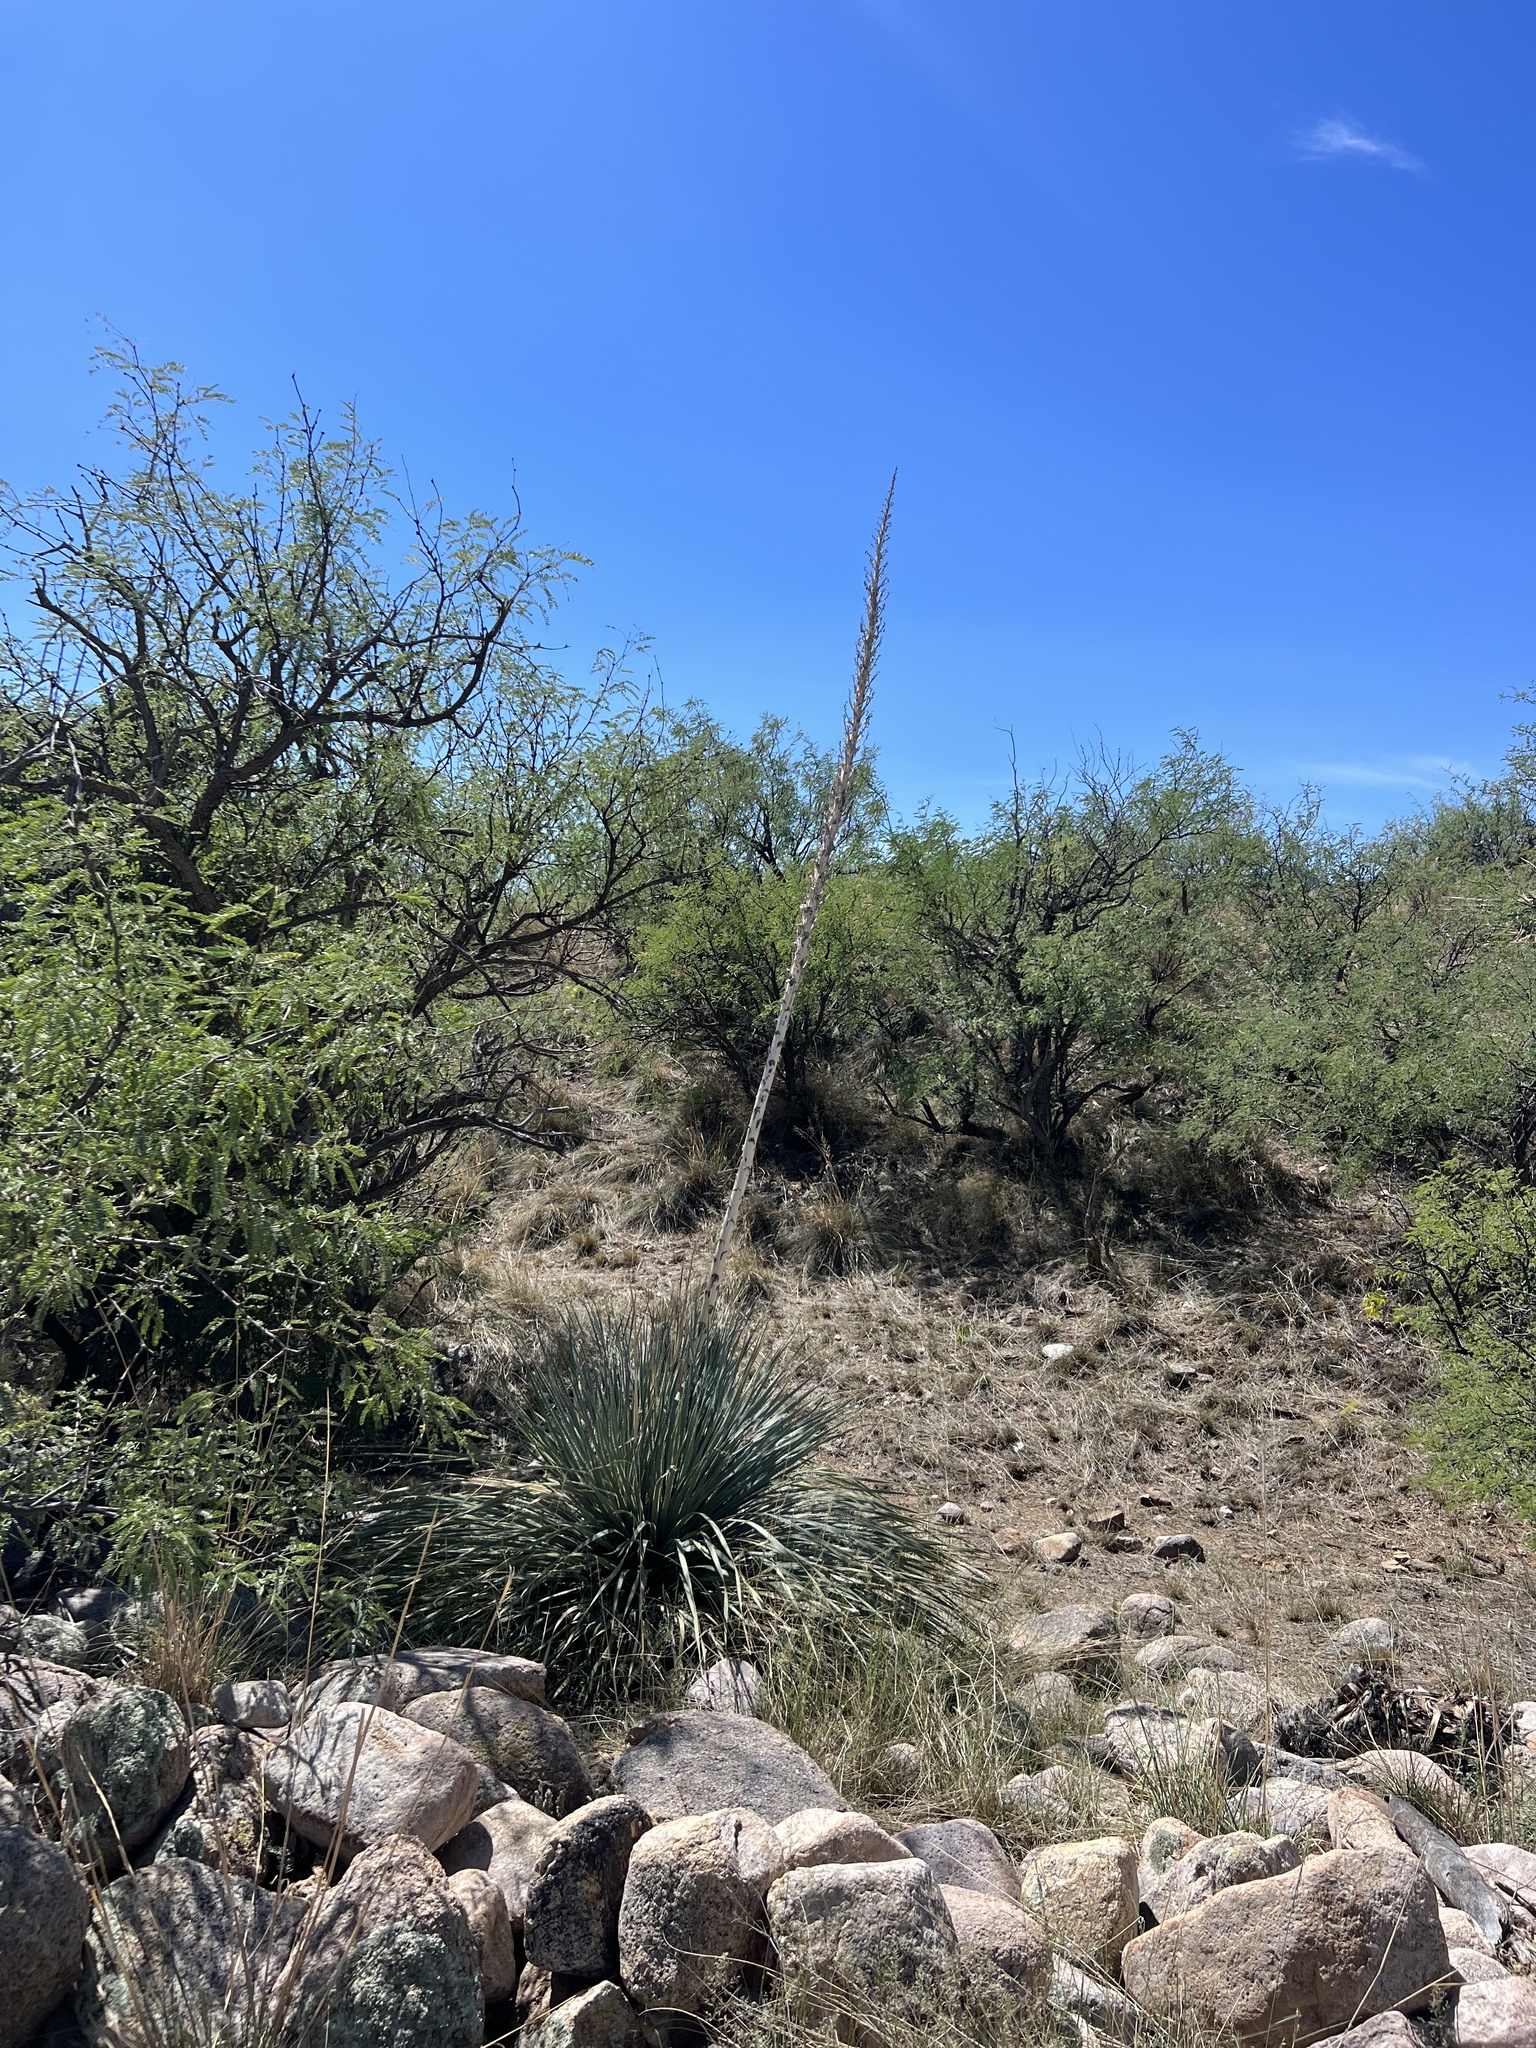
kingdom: Plantae
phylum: Tracheophyta
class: Liliopsida
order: Asparagales
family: Asparagaceae
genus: Dasylirion
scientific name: Dasylirion wheeleri
